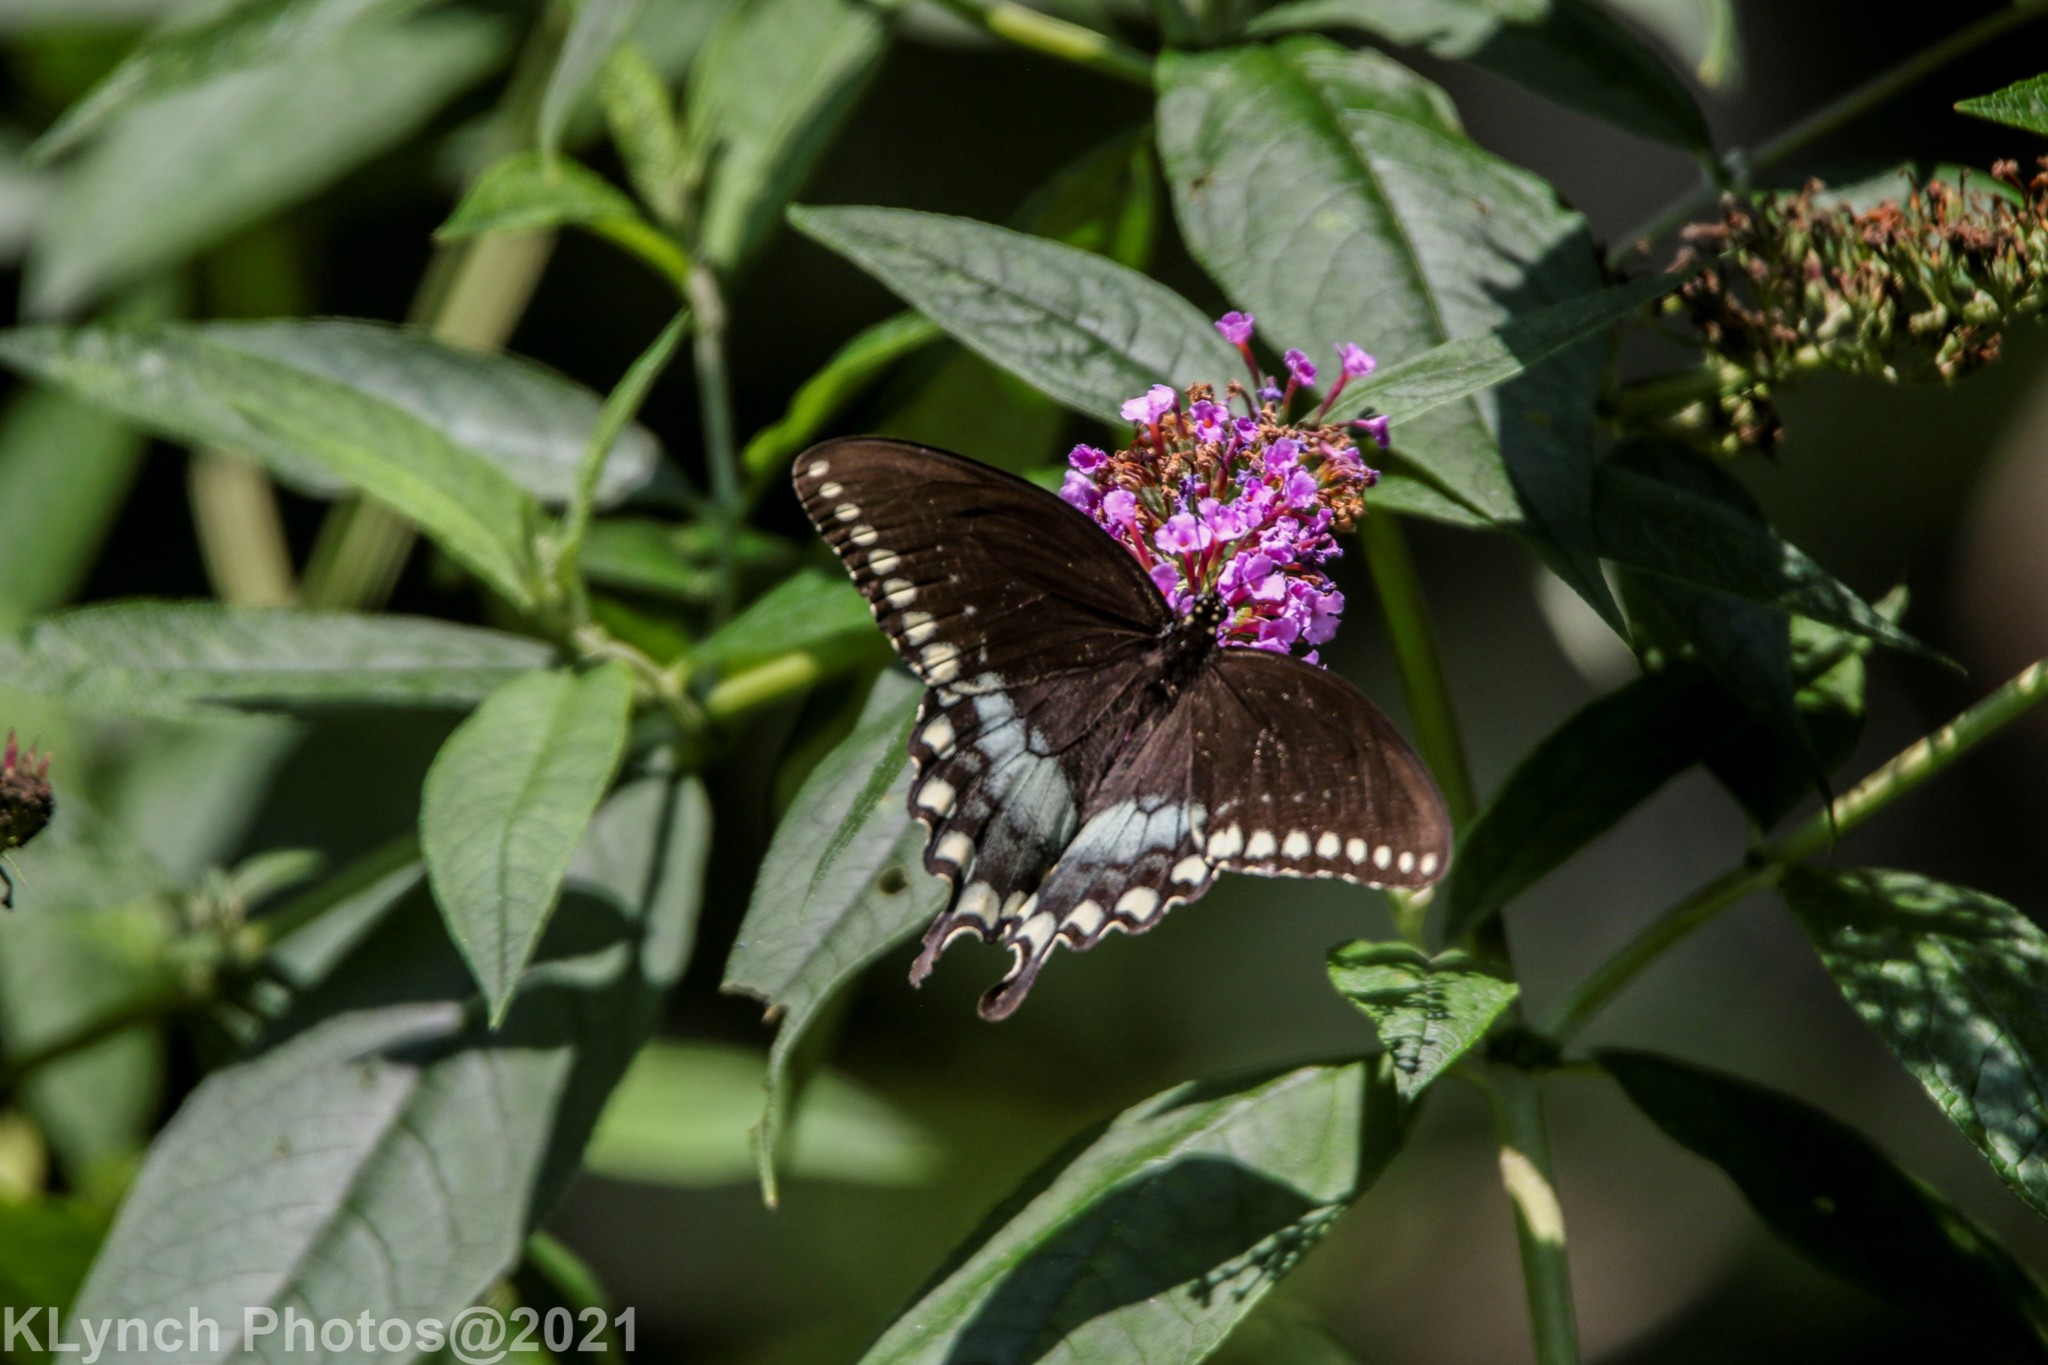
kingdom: Animalia
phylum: Arthropoda
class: Insecta
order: Lepidoptera
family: Papilionidae
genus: Papilio
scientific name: Papilio troilus
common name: Spicebush swallowtail
